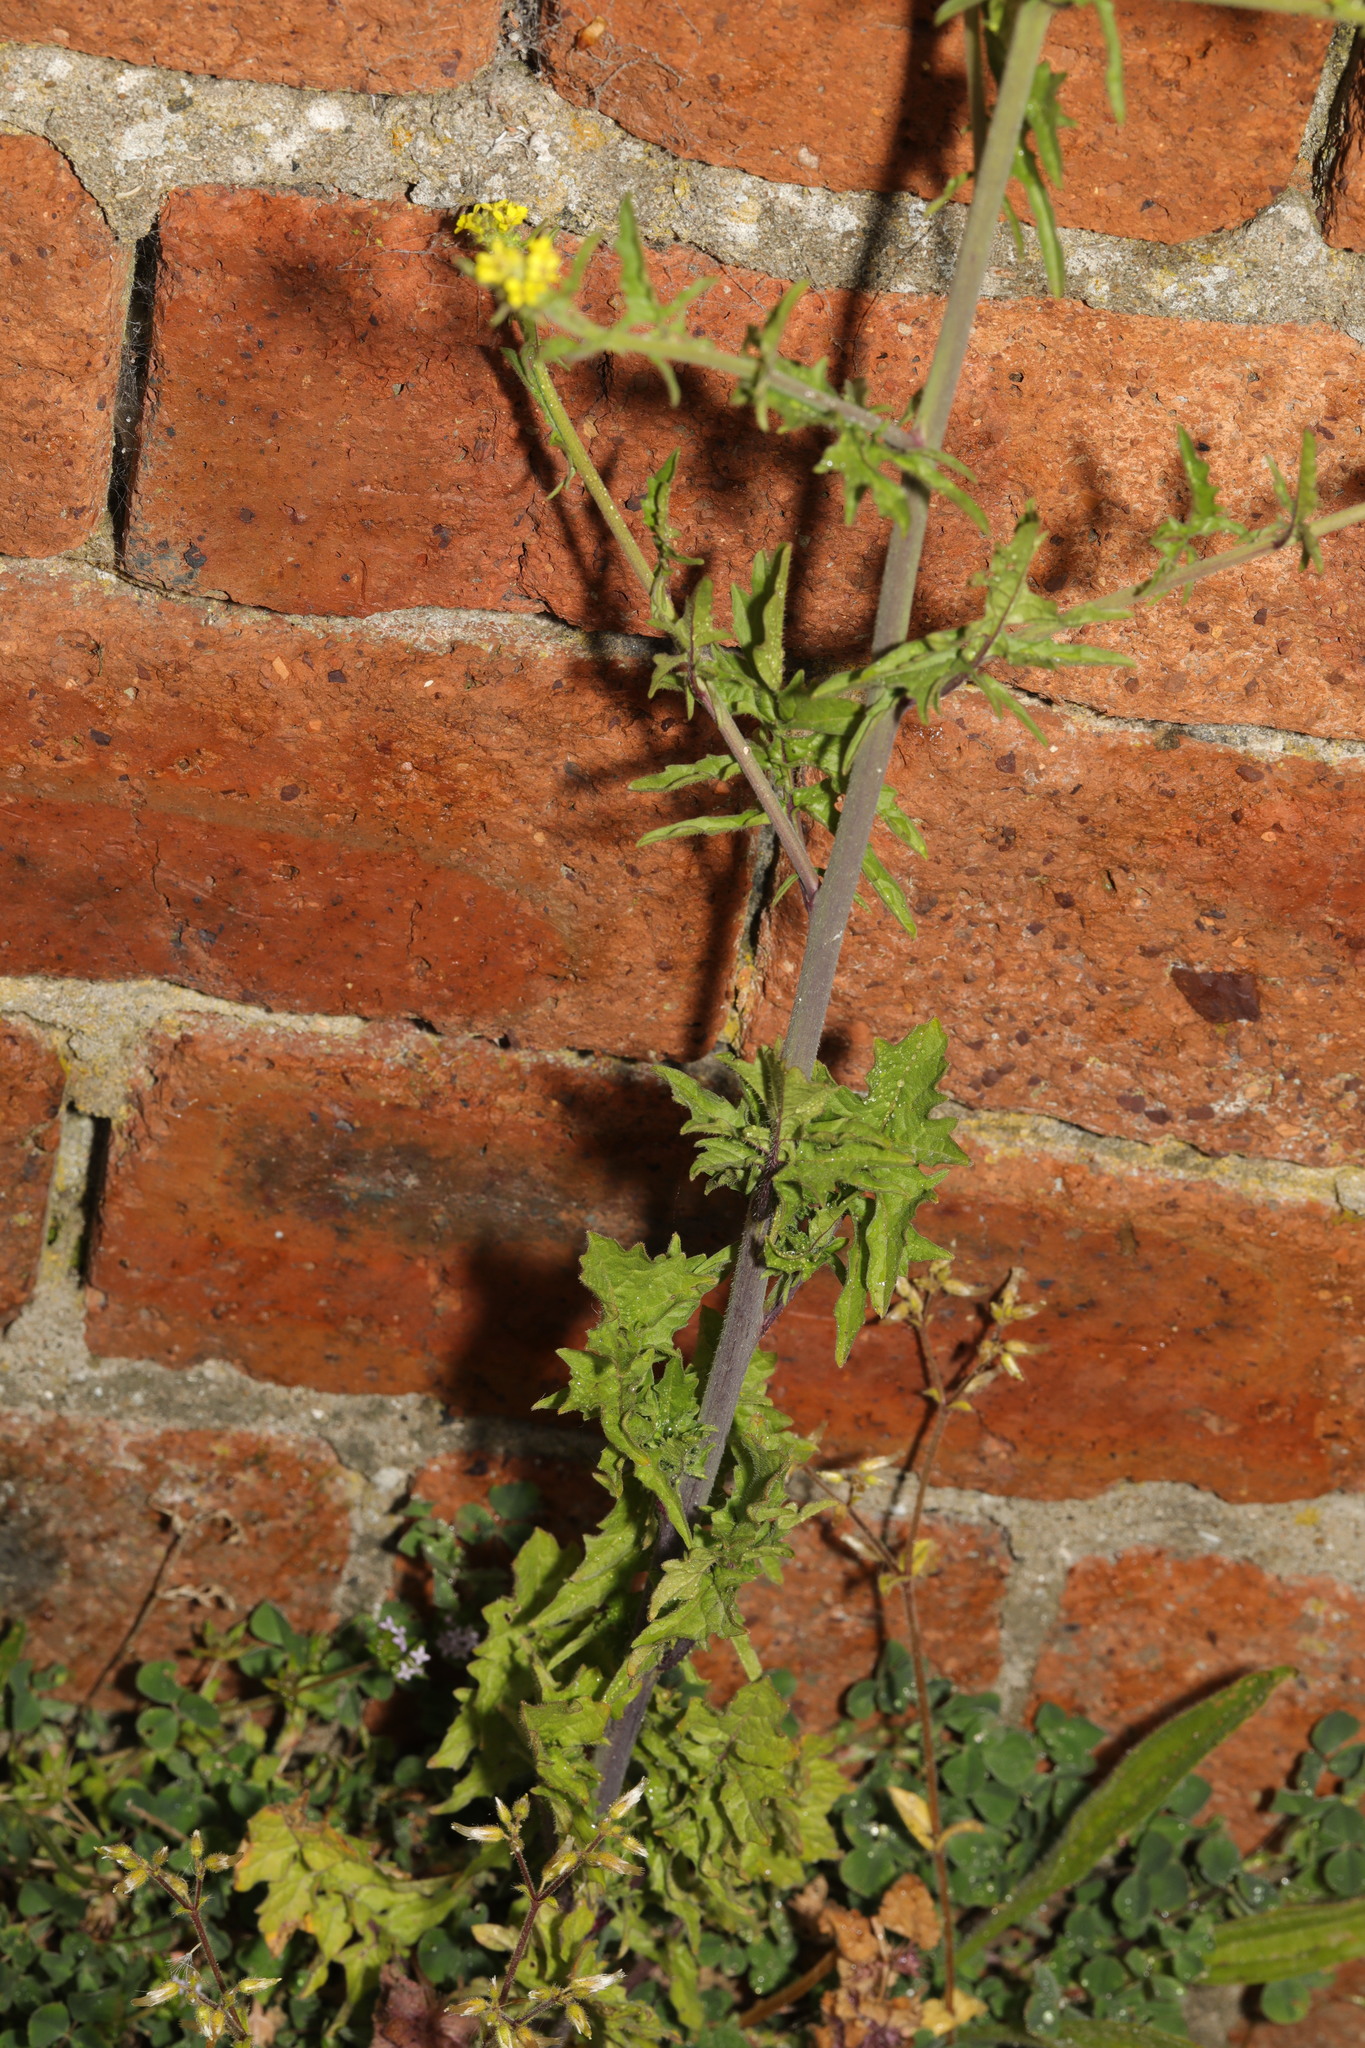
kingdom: Plantae
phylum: Tracheophyta
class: Magnoliopsida
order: Brassicales
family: Brassicaceae
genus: Sisymbrium
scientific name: Sisymbrium officinale
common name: Hedge mustard
